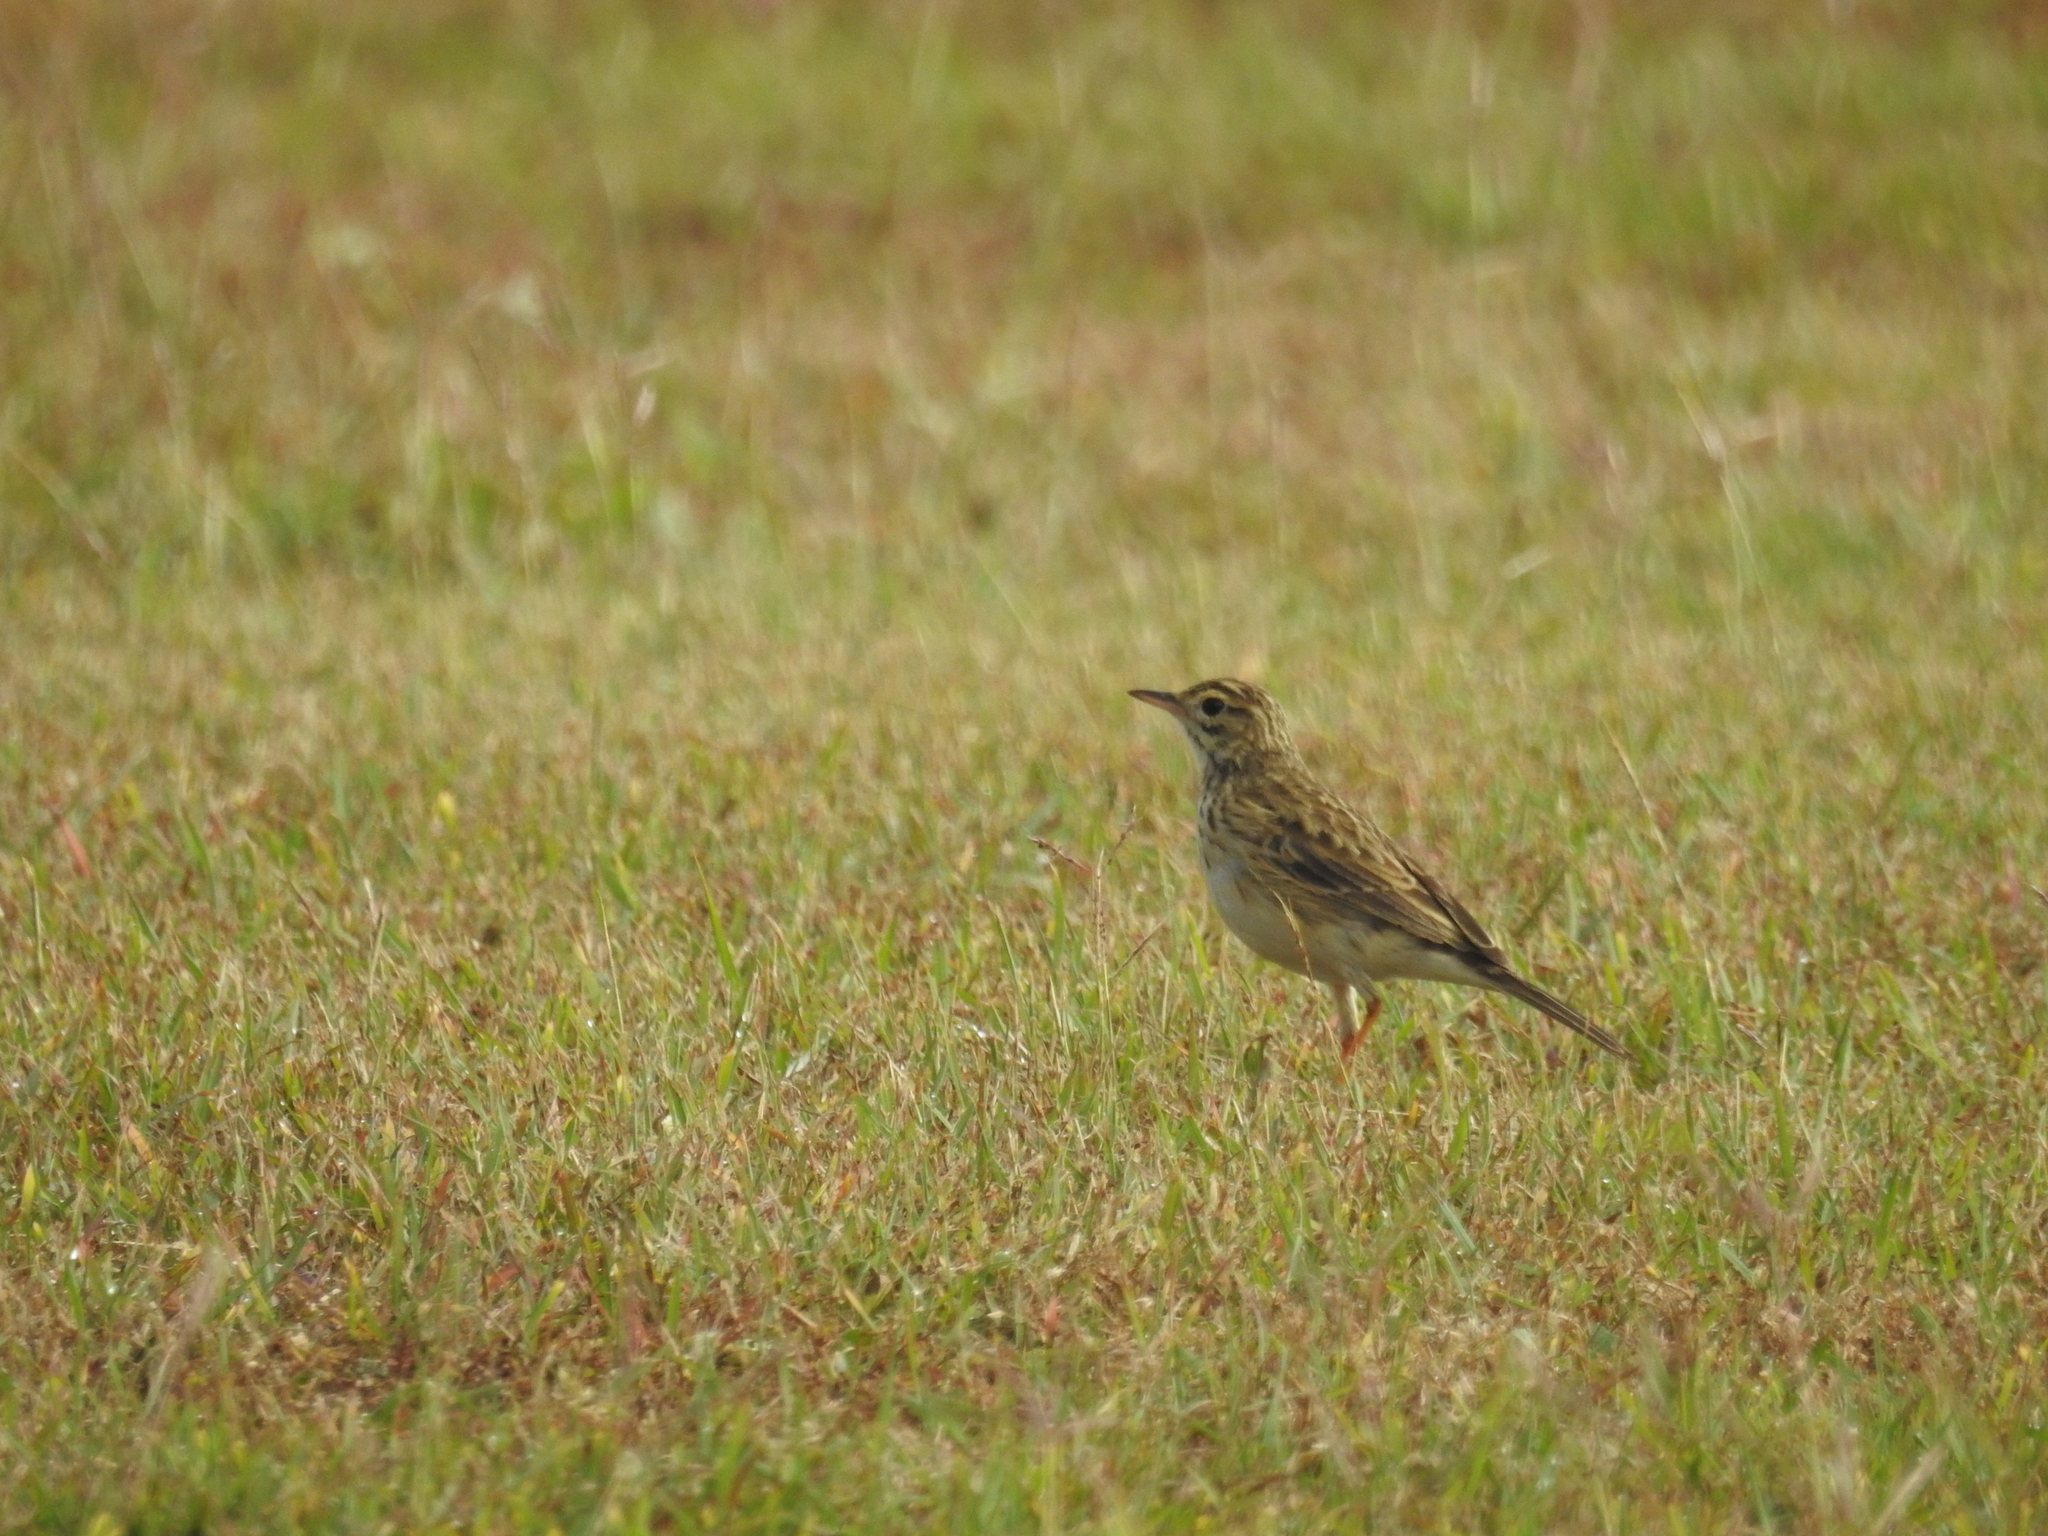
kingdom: Animalia
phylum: Chordata
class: Aves
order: Passeriformes
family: Motacillidae
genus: Anthus
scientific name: Anthus australis
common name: Australian pipit
